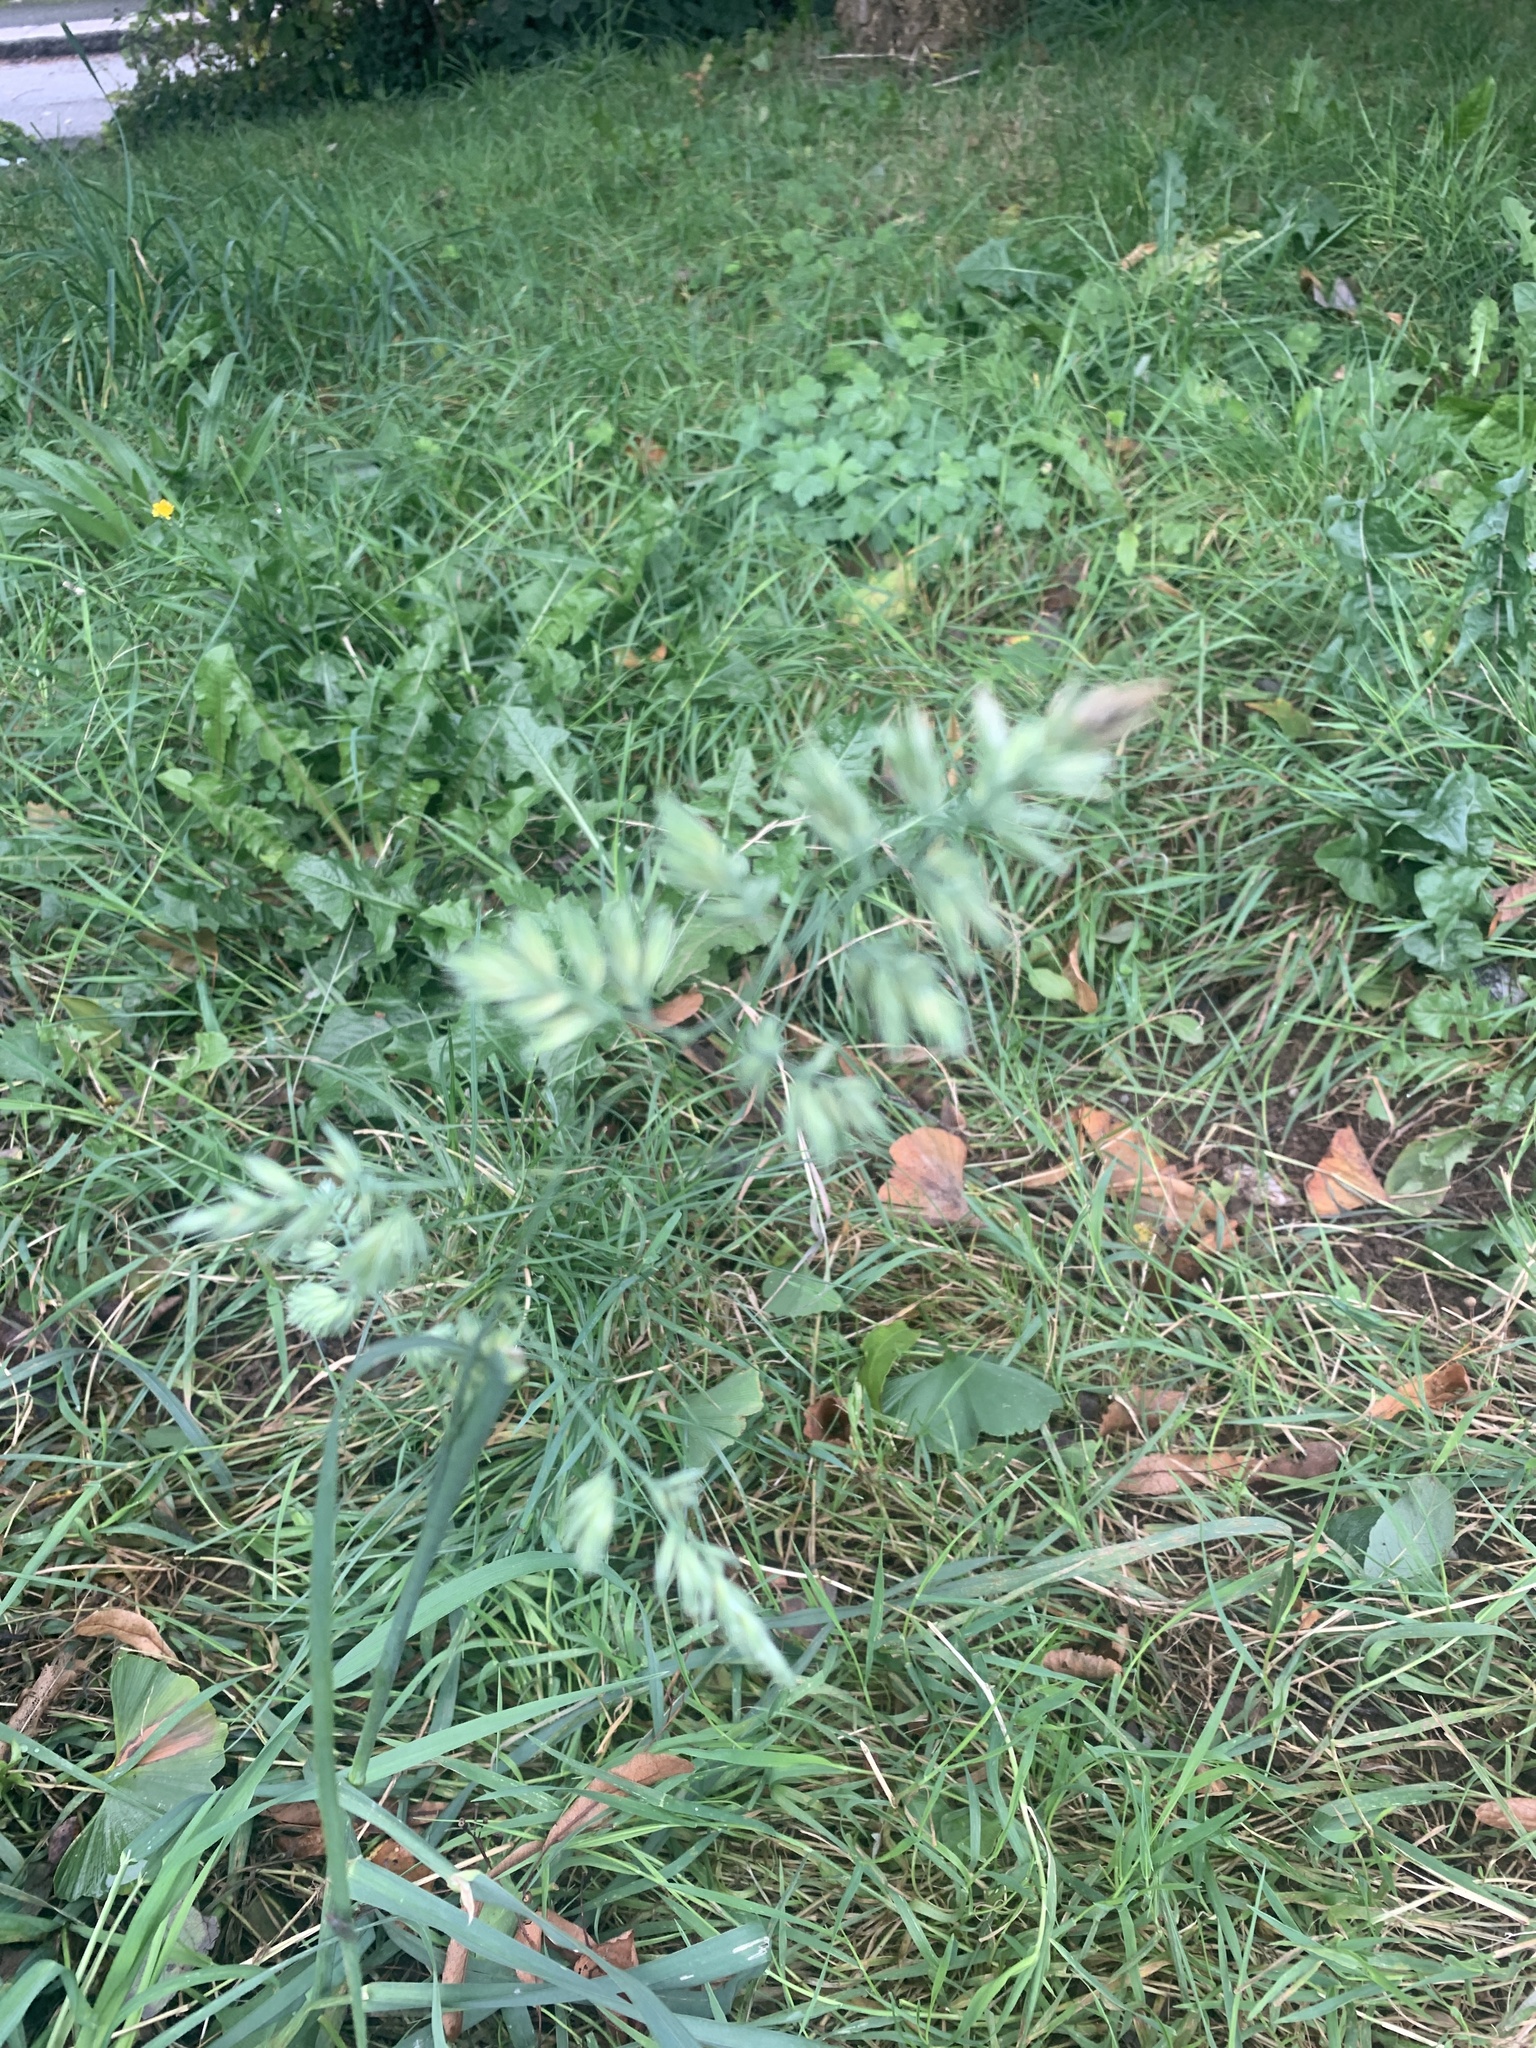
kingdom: Plantae
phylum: Tracheophyta
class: Liliopsida
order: Poales
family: Poaceae
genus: Dactylis
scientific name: Dactylis glomerata
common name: Orchardgrass
